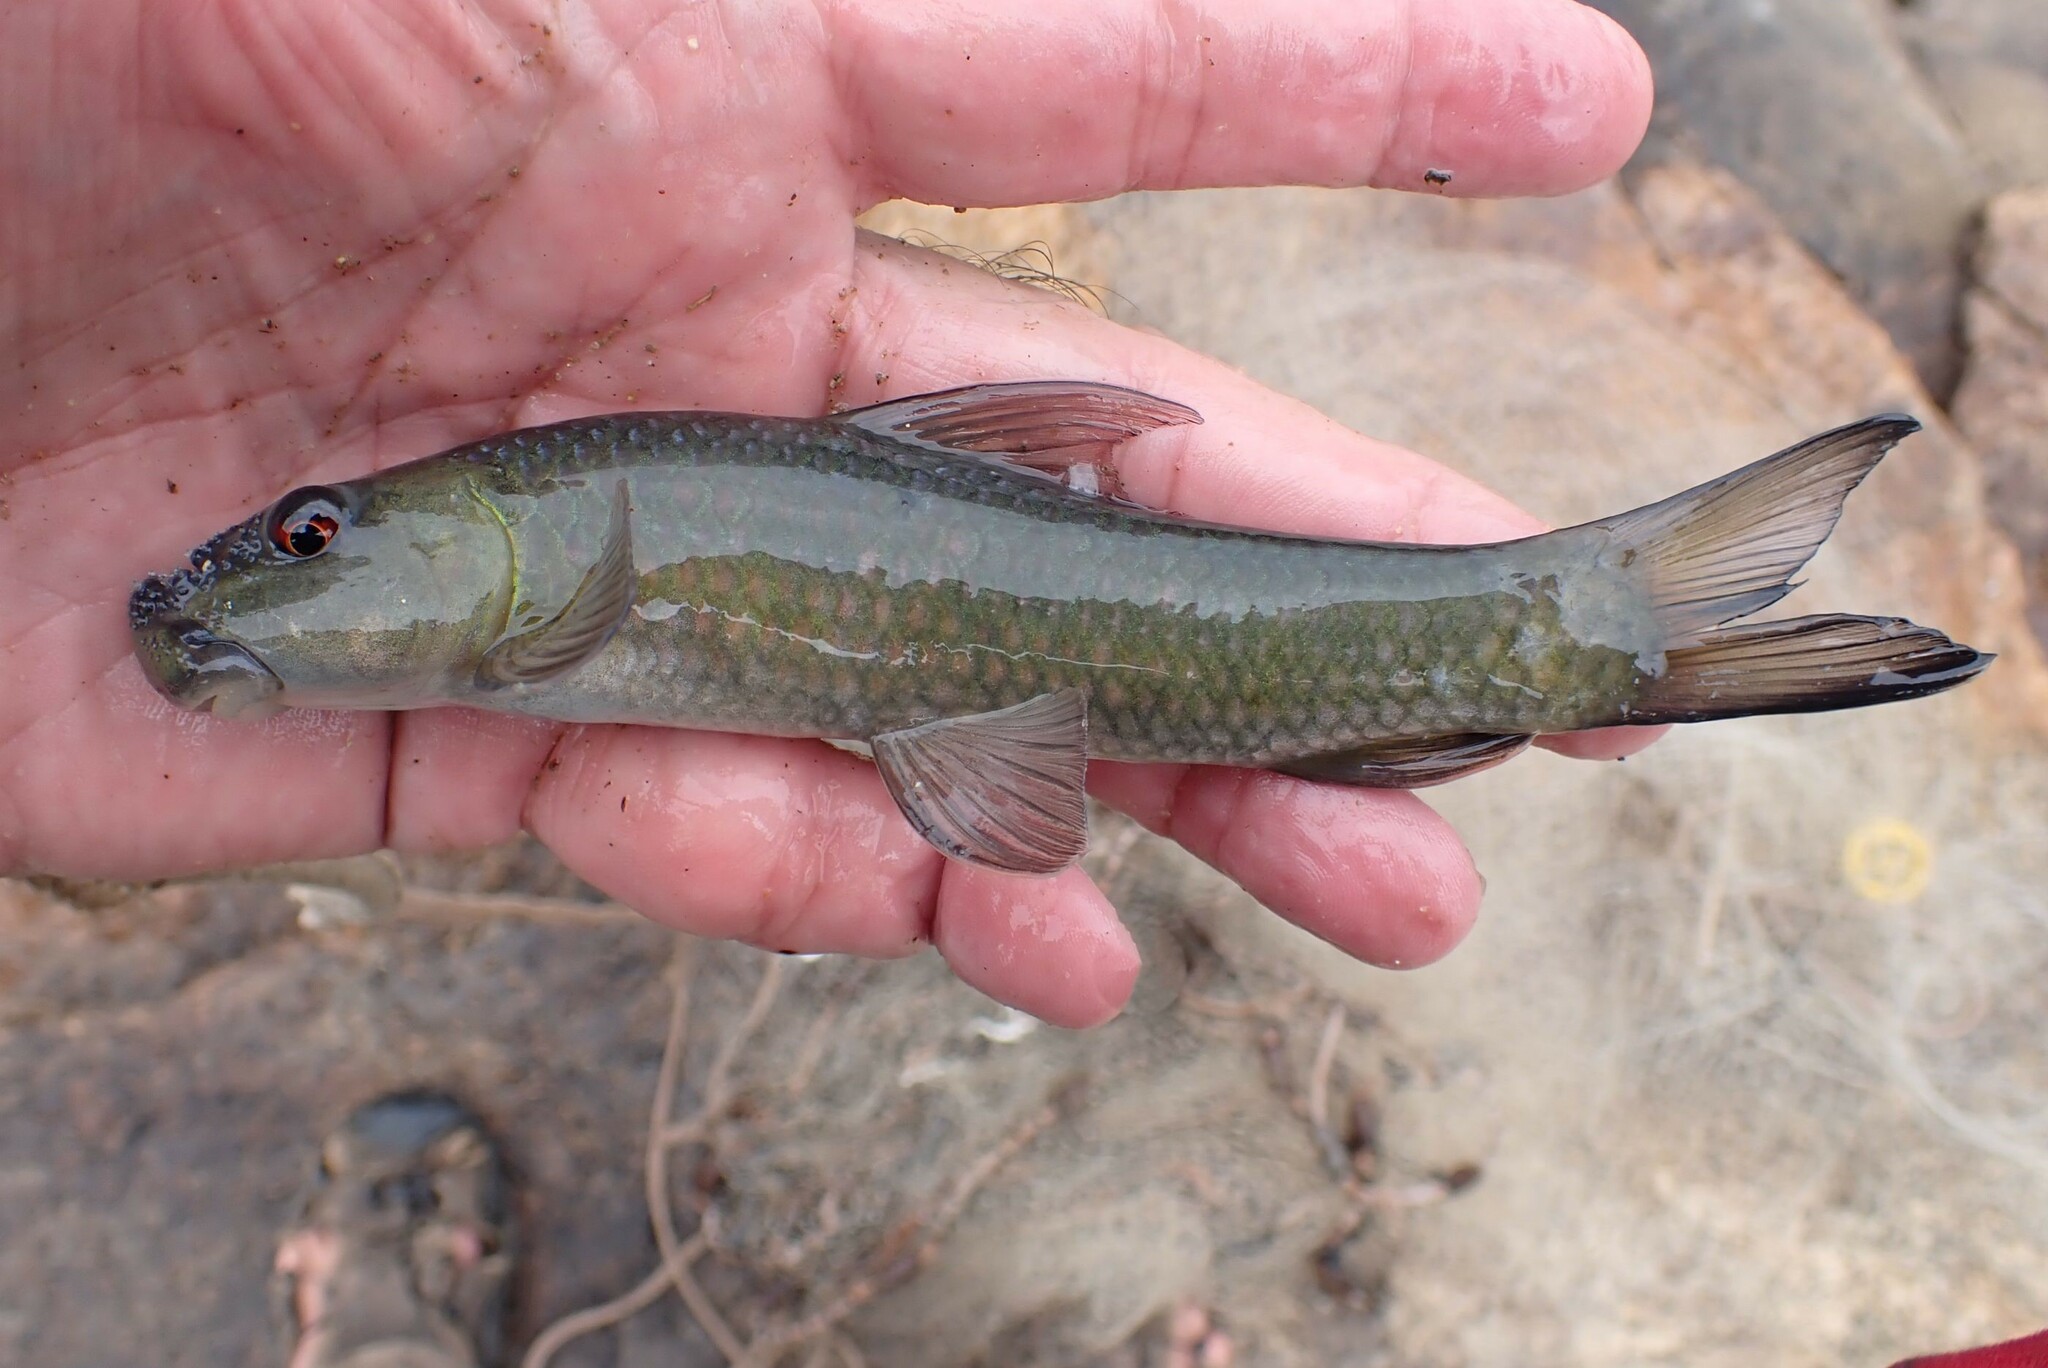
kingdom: Animalia
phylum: Chordata
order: Cypriniformes
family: Cyprinidae
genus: Labeo
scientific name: Labeo cylindricus
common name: Redeye labeo
